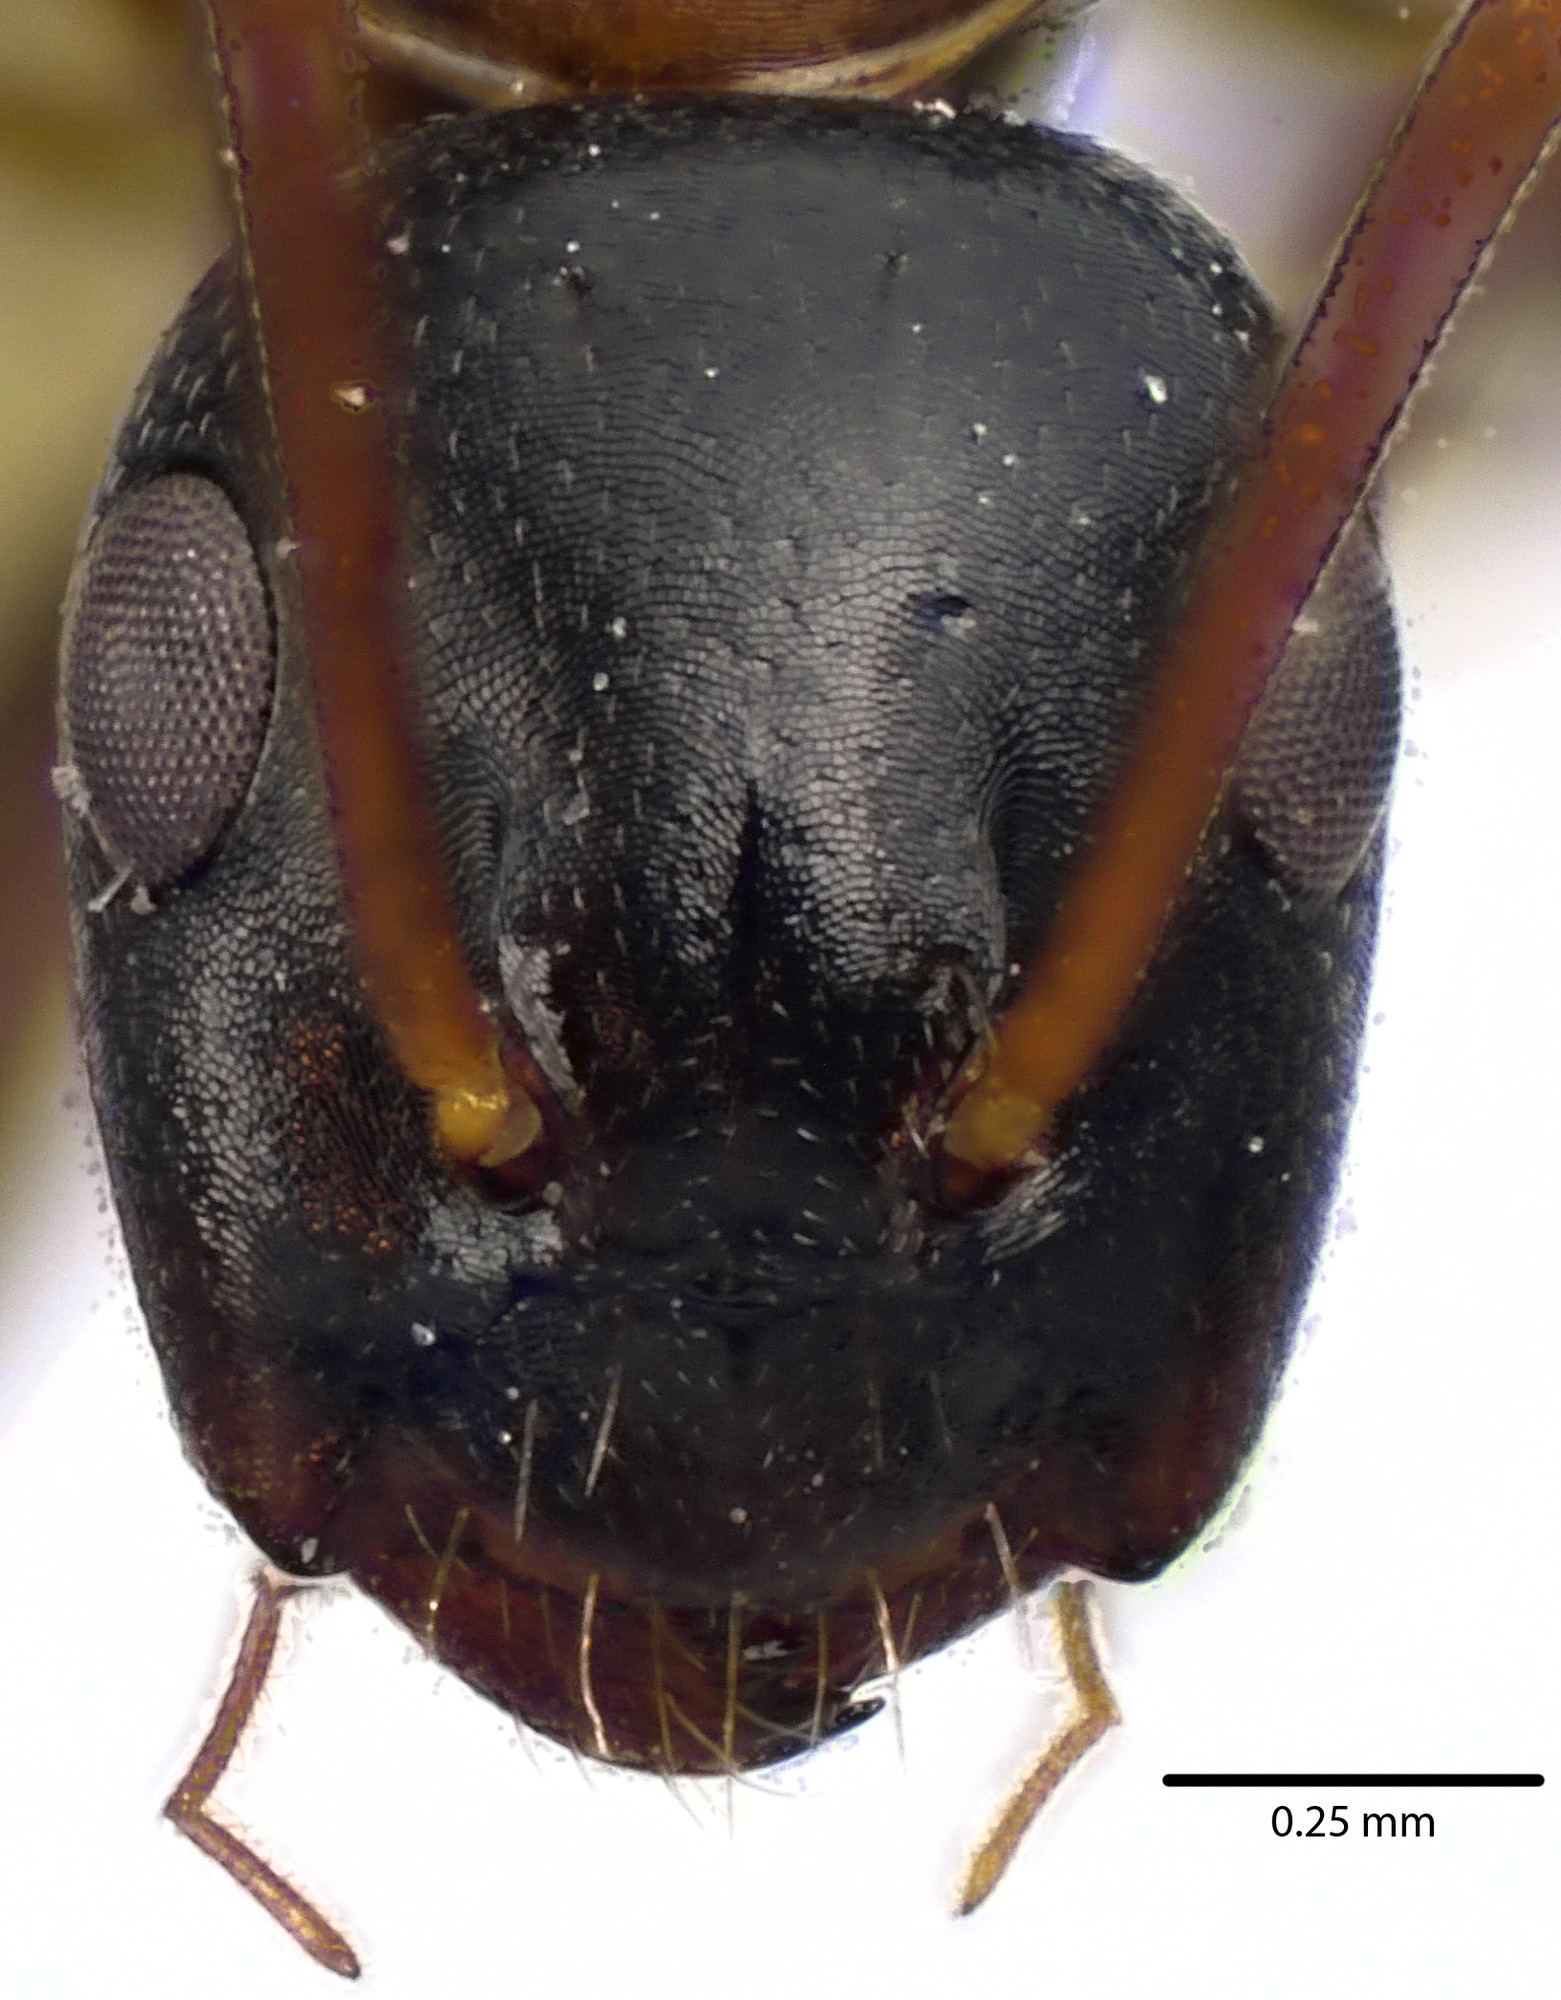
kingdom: Animalia
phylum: Arthropoda
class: Insecta
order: Hymenoptera
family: Formicidae
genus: Camponotus
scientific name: Camponotus nearcticus
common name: Smaller carpenter ant
